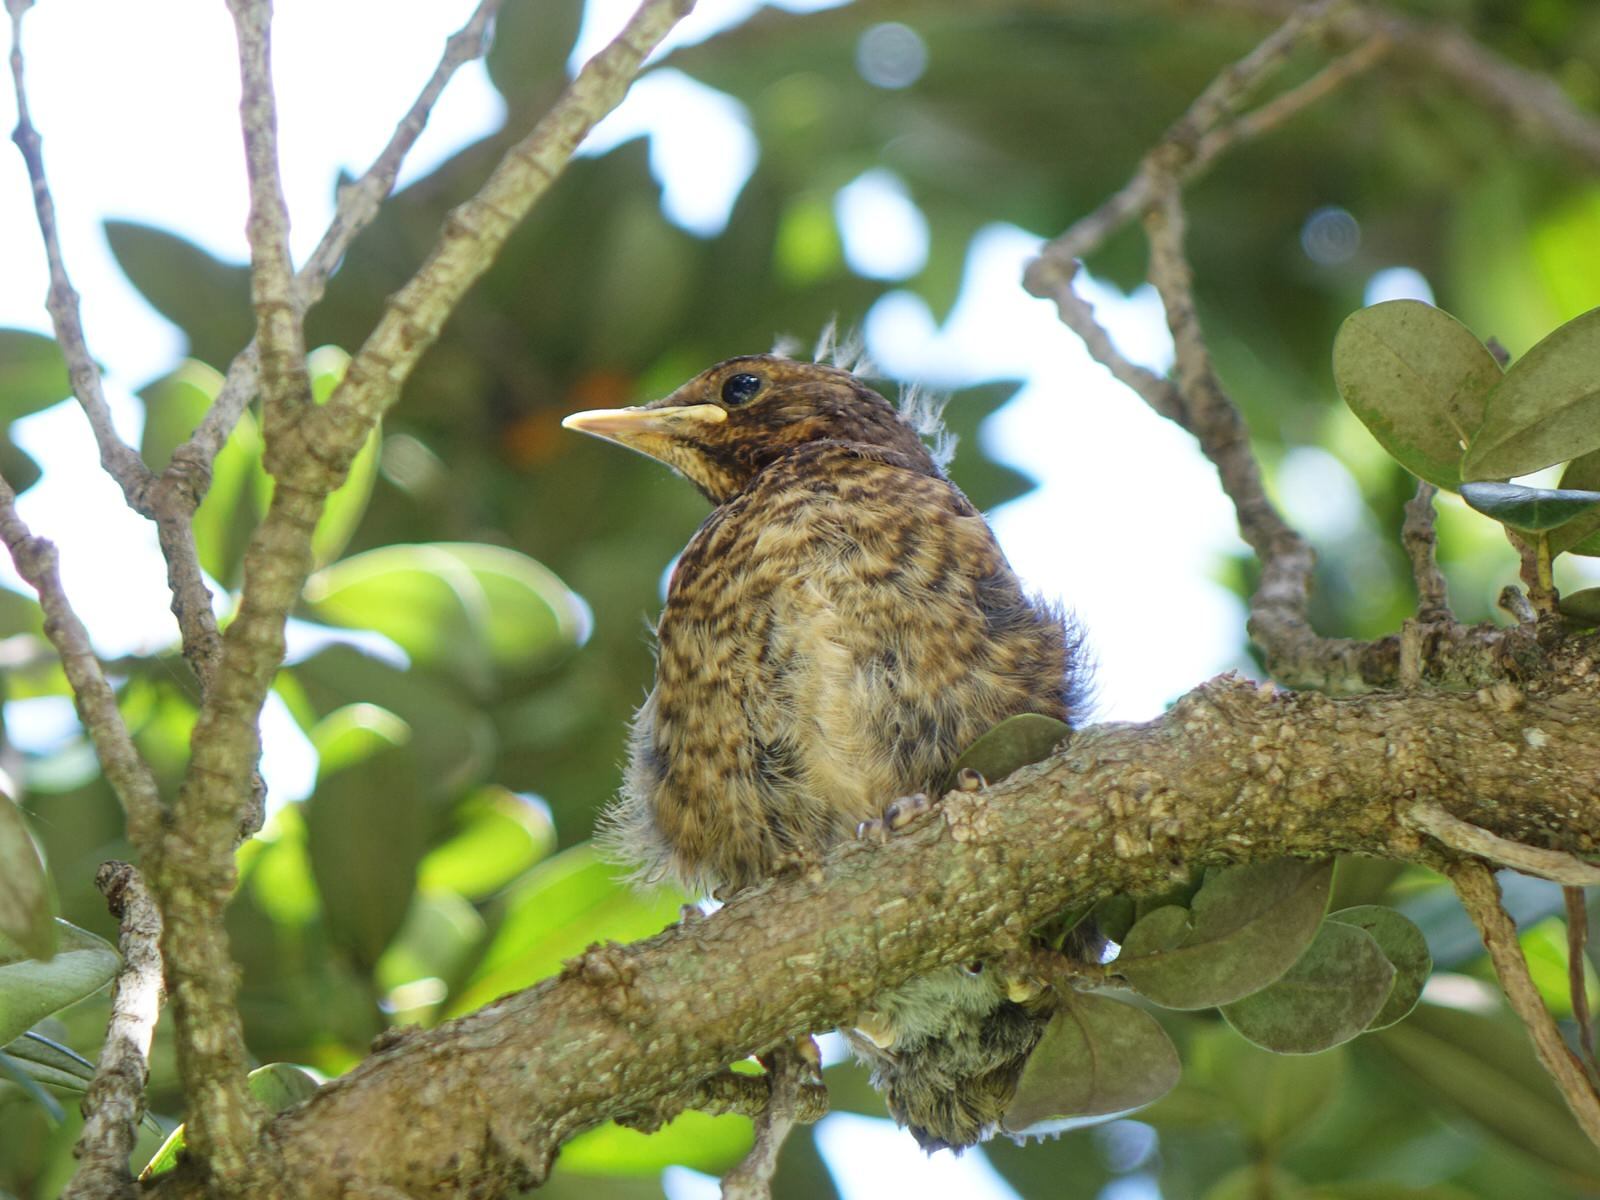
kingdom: Animalia
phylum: Chordata
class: Aves
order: Passeriformes
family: Turdidae
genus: Turdus
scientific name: Turdus merula
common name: Common blackbird
